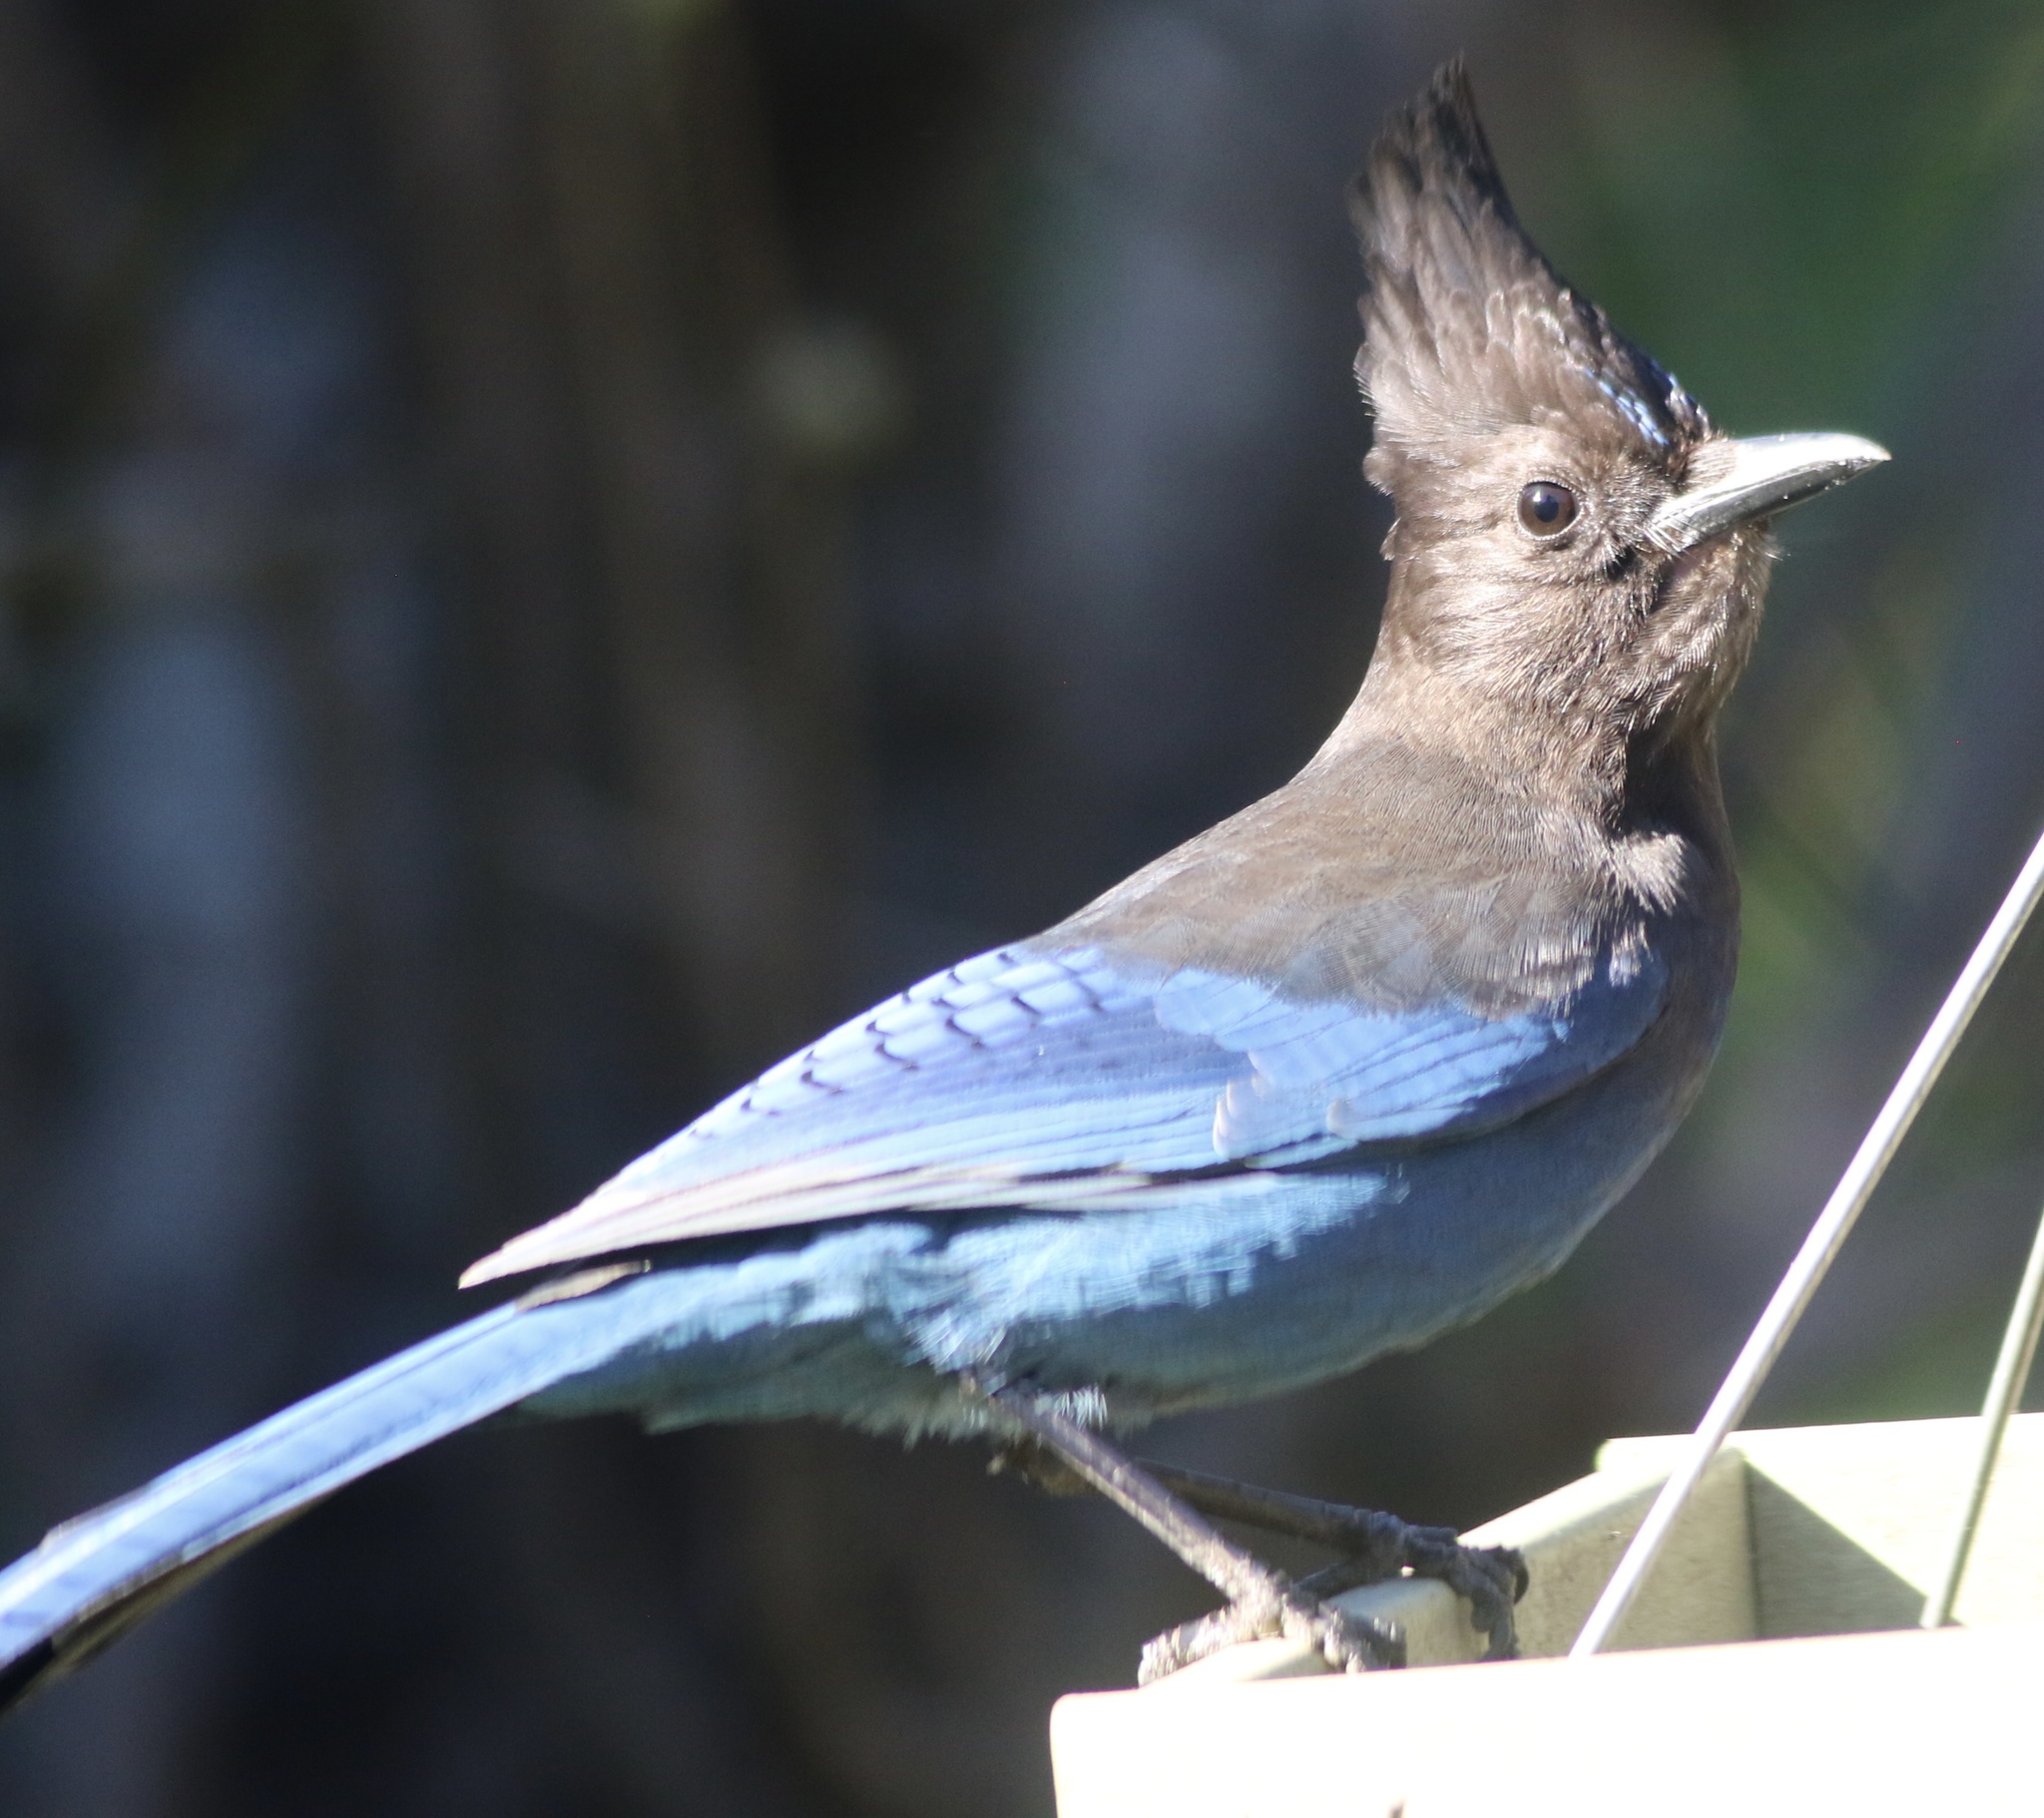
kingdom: Animalia
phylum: Chordata
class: Aves
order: Passeriformes
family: Corvidae
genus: Cyanocitta
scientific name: Cyanocitta stelleri
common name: Steller's jay
